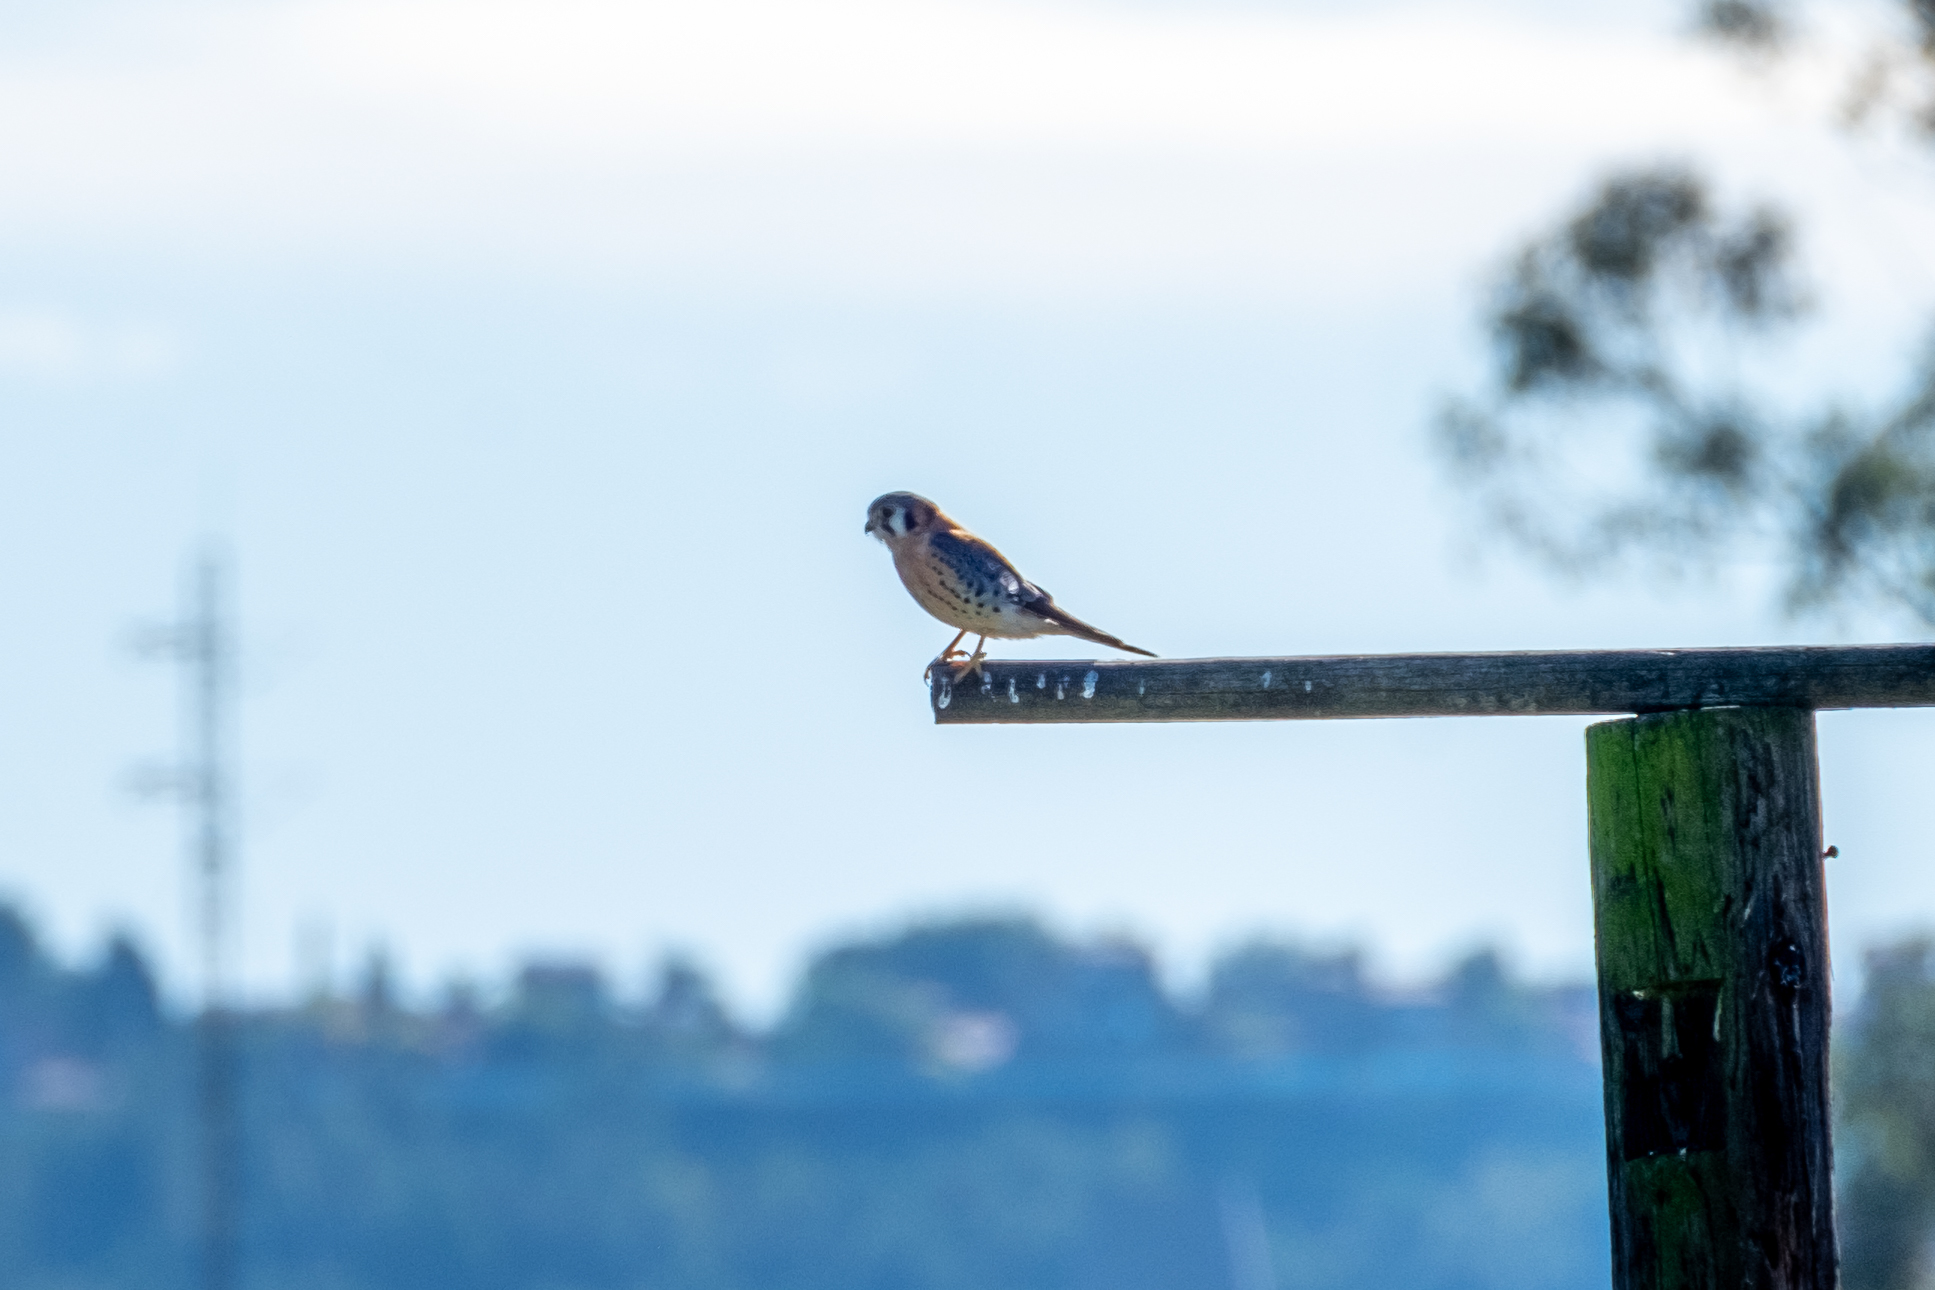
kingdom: Animalia
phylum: Chordata
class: Aves
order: Falconiformes
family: Falconidae
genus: Falco
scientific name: Falco sparverius
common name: American kestrel
